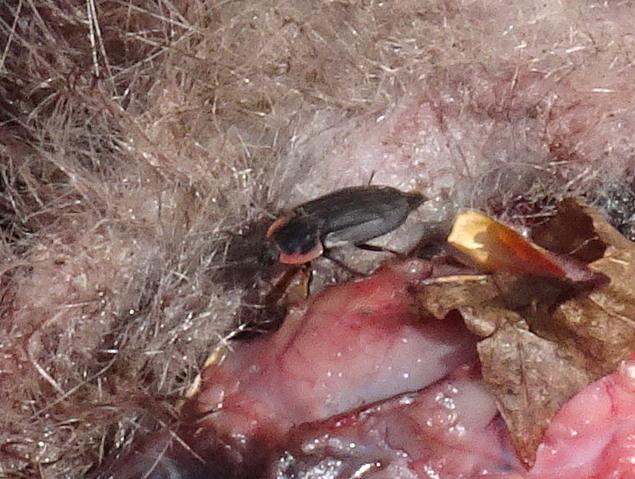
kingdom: Animalia
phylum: Arthropoda
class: Insecta
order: Coleoptera
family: Staphylinidae
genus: Oiceoptoma
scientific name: Oiceoptoma noveboracense
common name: Margined carrion beetle
